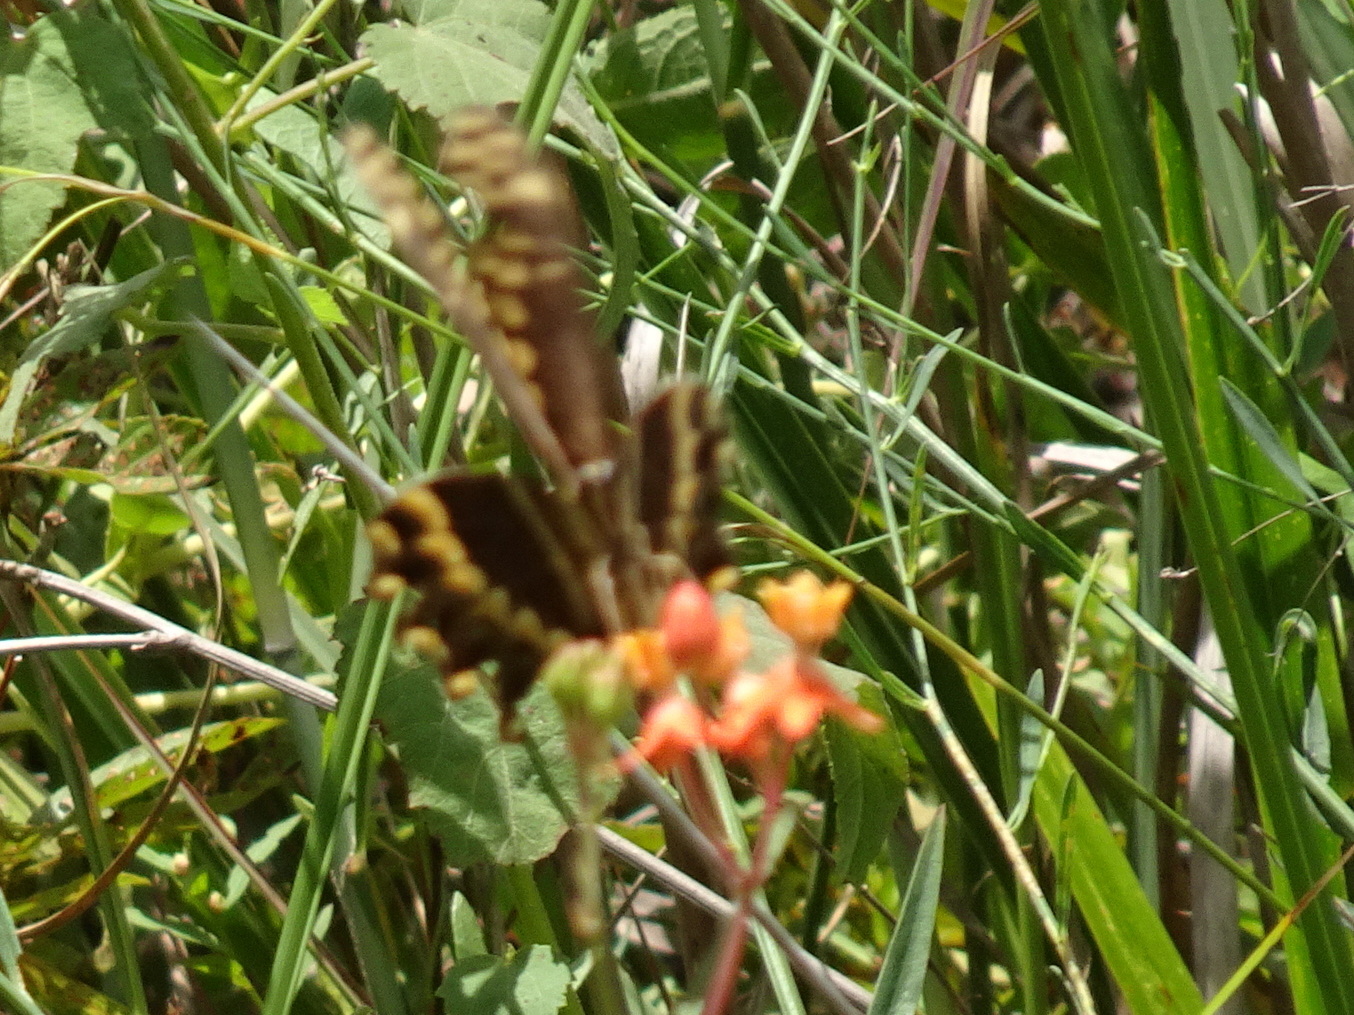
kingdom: Animalia
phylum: Arthropoda
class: Insecta
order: Lepidoptera
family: Papilionidae
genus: Papilio
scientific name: Papilio palamedes
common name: Palamedes swallowtail
